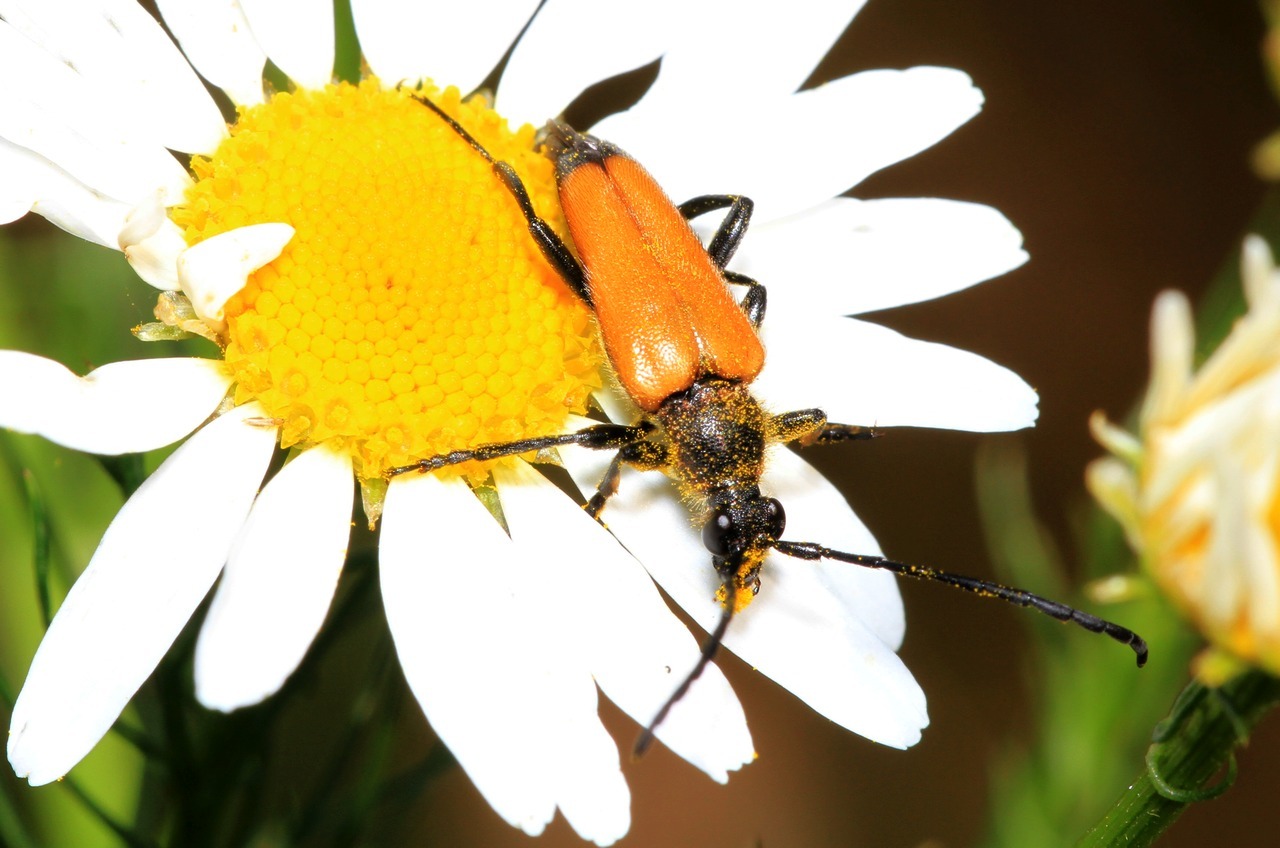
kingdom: Animalia
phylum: Arthropoda
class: Insecta
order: Coleoptera
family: Cerambycidae
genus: Paracorymbia
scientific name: Paracorymbia fulva
